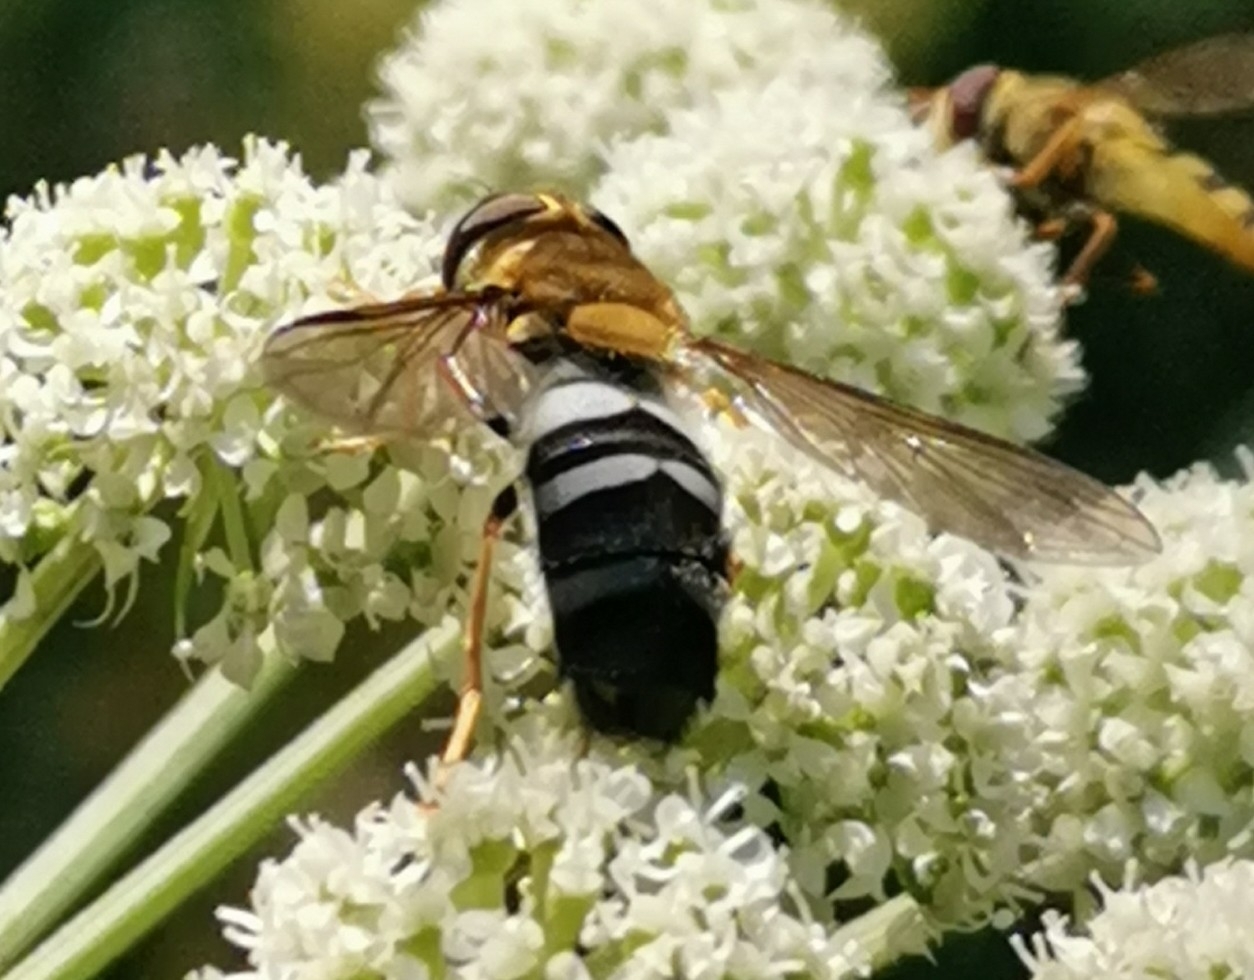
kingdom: Animalia
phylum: Arthropoda
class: Insecta
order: Diptera
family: Syrphidae
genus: Leucozona
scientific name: Leucozona glaucia
